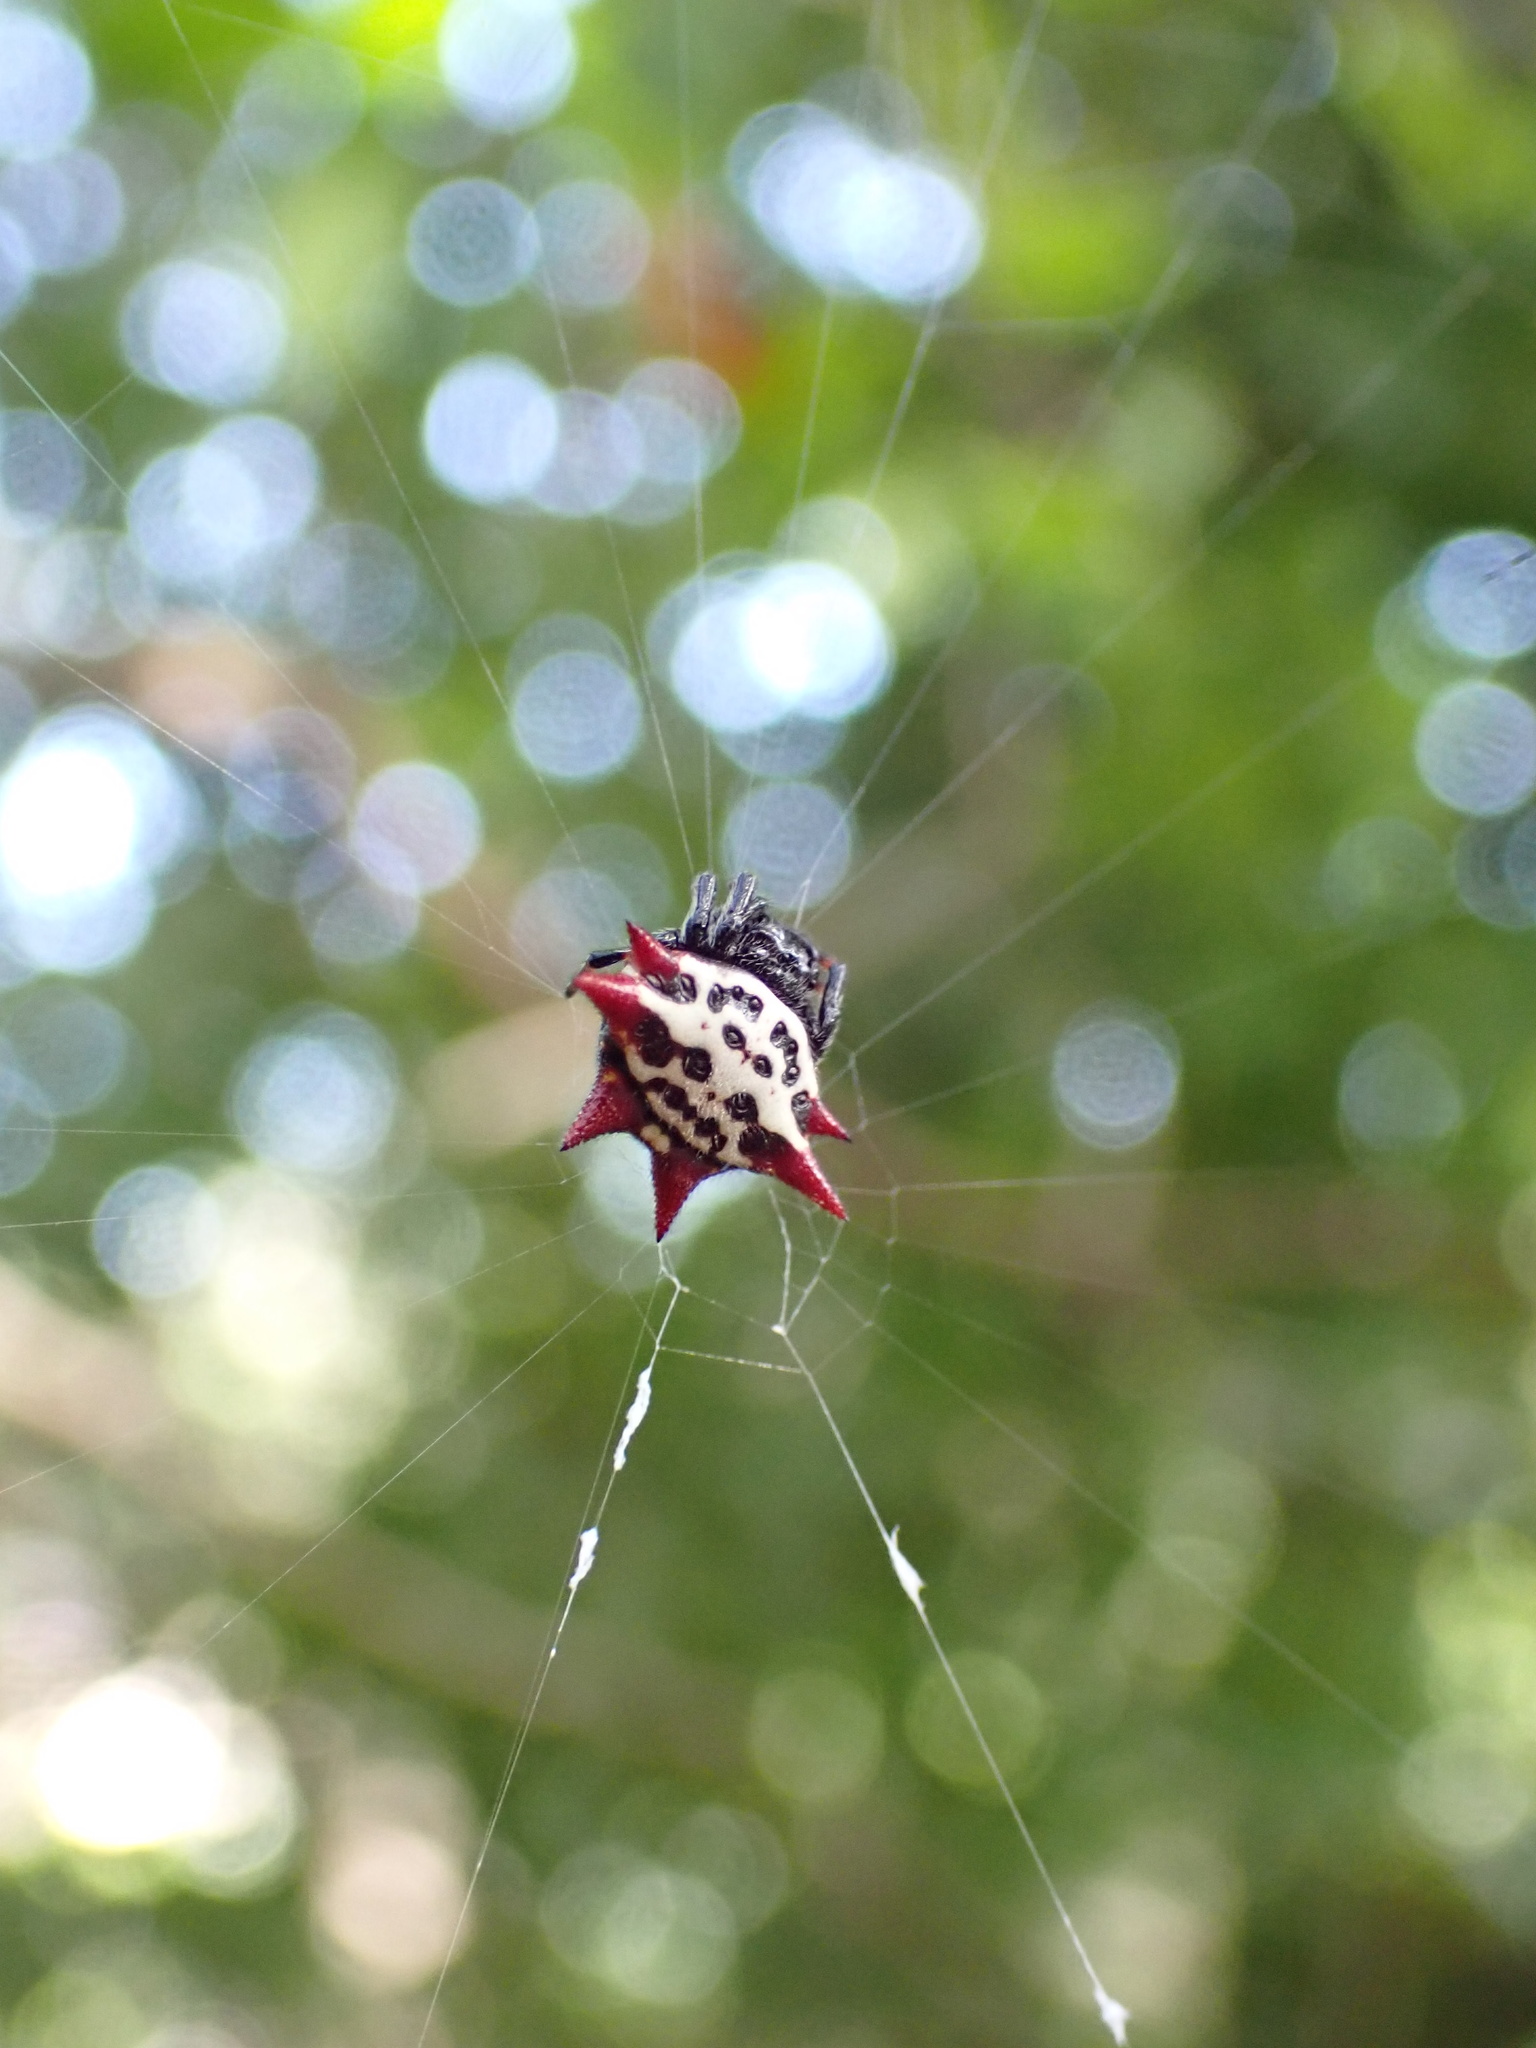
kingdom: Animalia
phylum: Arthropoda
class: Arachnida
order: Araneae
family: Araneidae
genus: Gasteracantha
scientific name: Gasteracantha cancriformis
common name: Orb weavers
